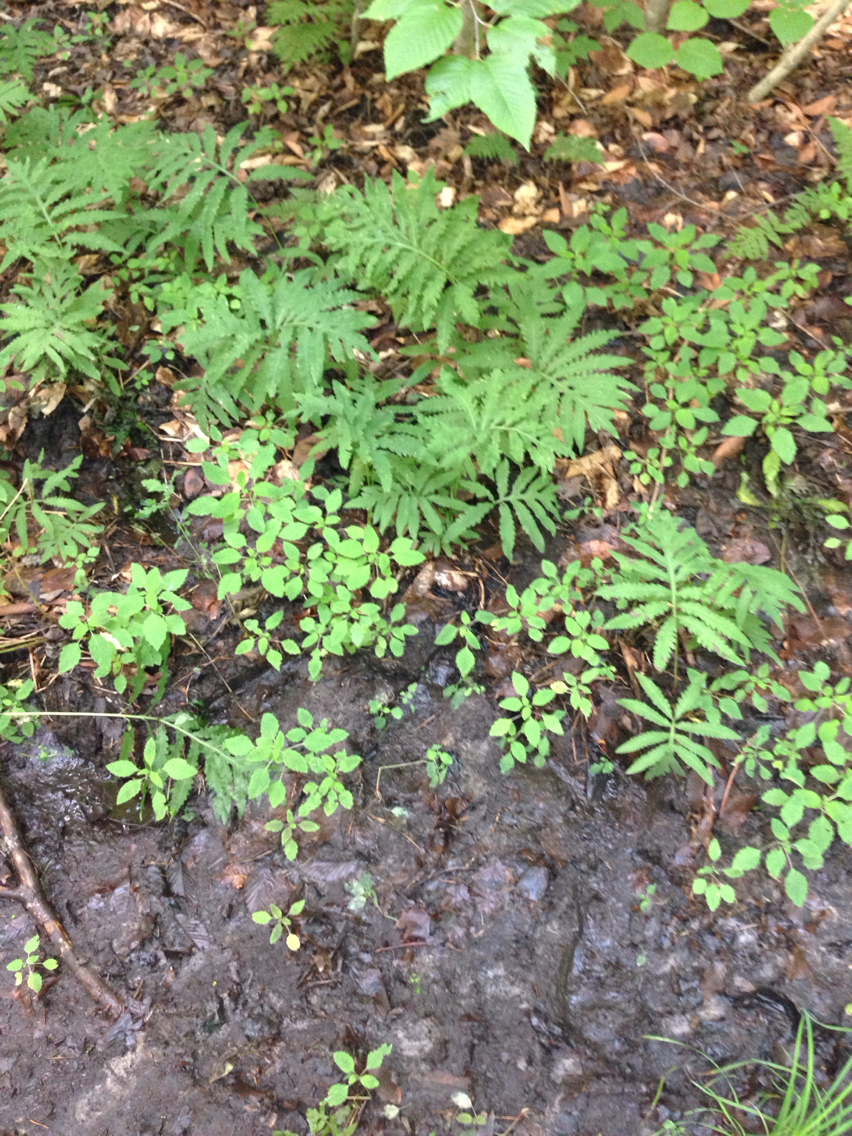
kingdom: Plantae
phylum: Tracheophyta
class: Polypodiopsida
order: Polypodiales
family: Onocleaceae
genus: Onoclea
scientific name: Onoclea sensibilis
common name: Sensitive fern
